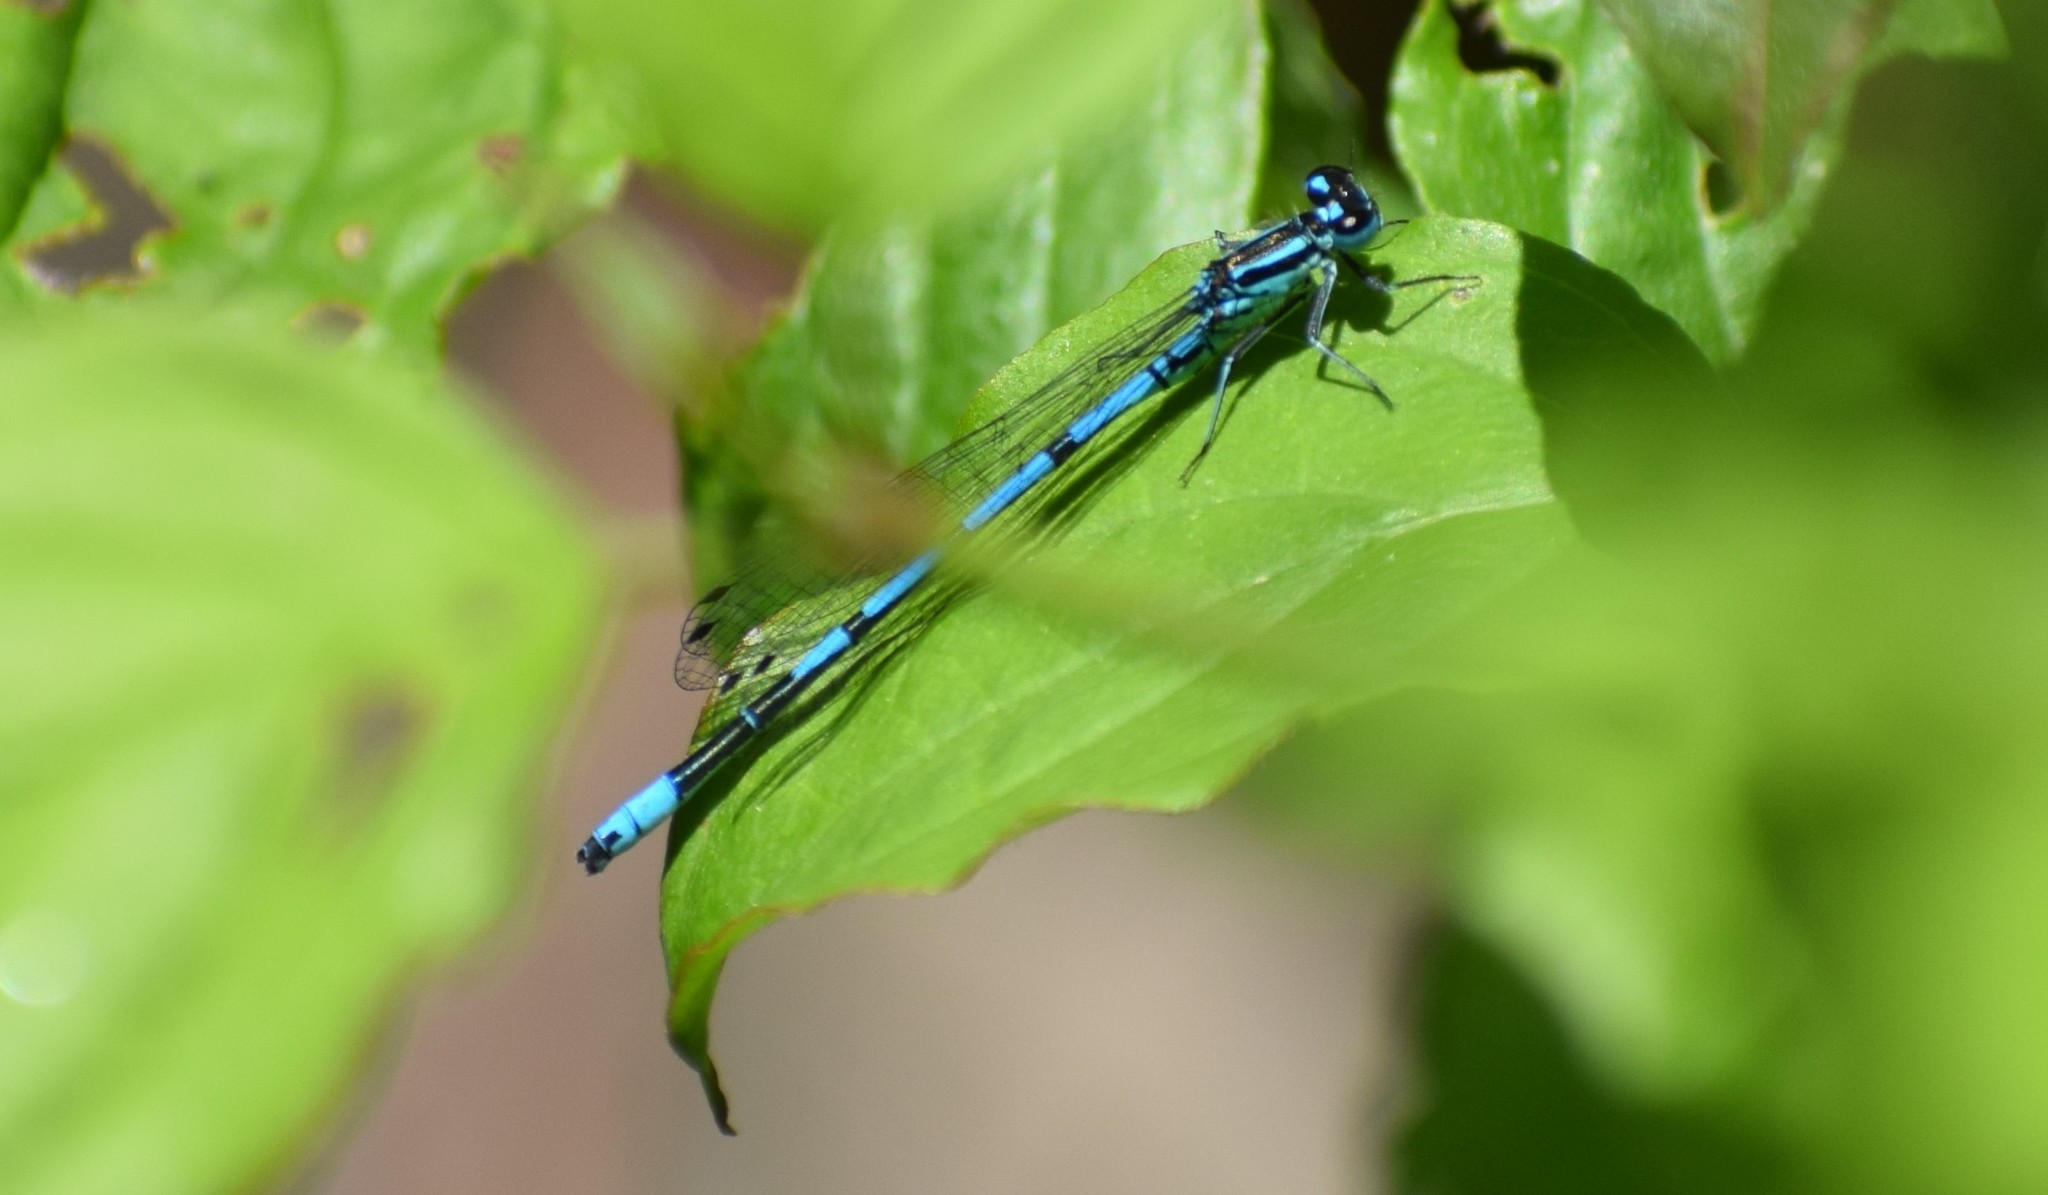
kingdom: Animalia
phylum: Arthropoda
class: Insecta
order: Odonata
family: Coenagrionidae
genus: Coenagrion
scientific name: Coenagrion puella
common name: Azure damselfly
